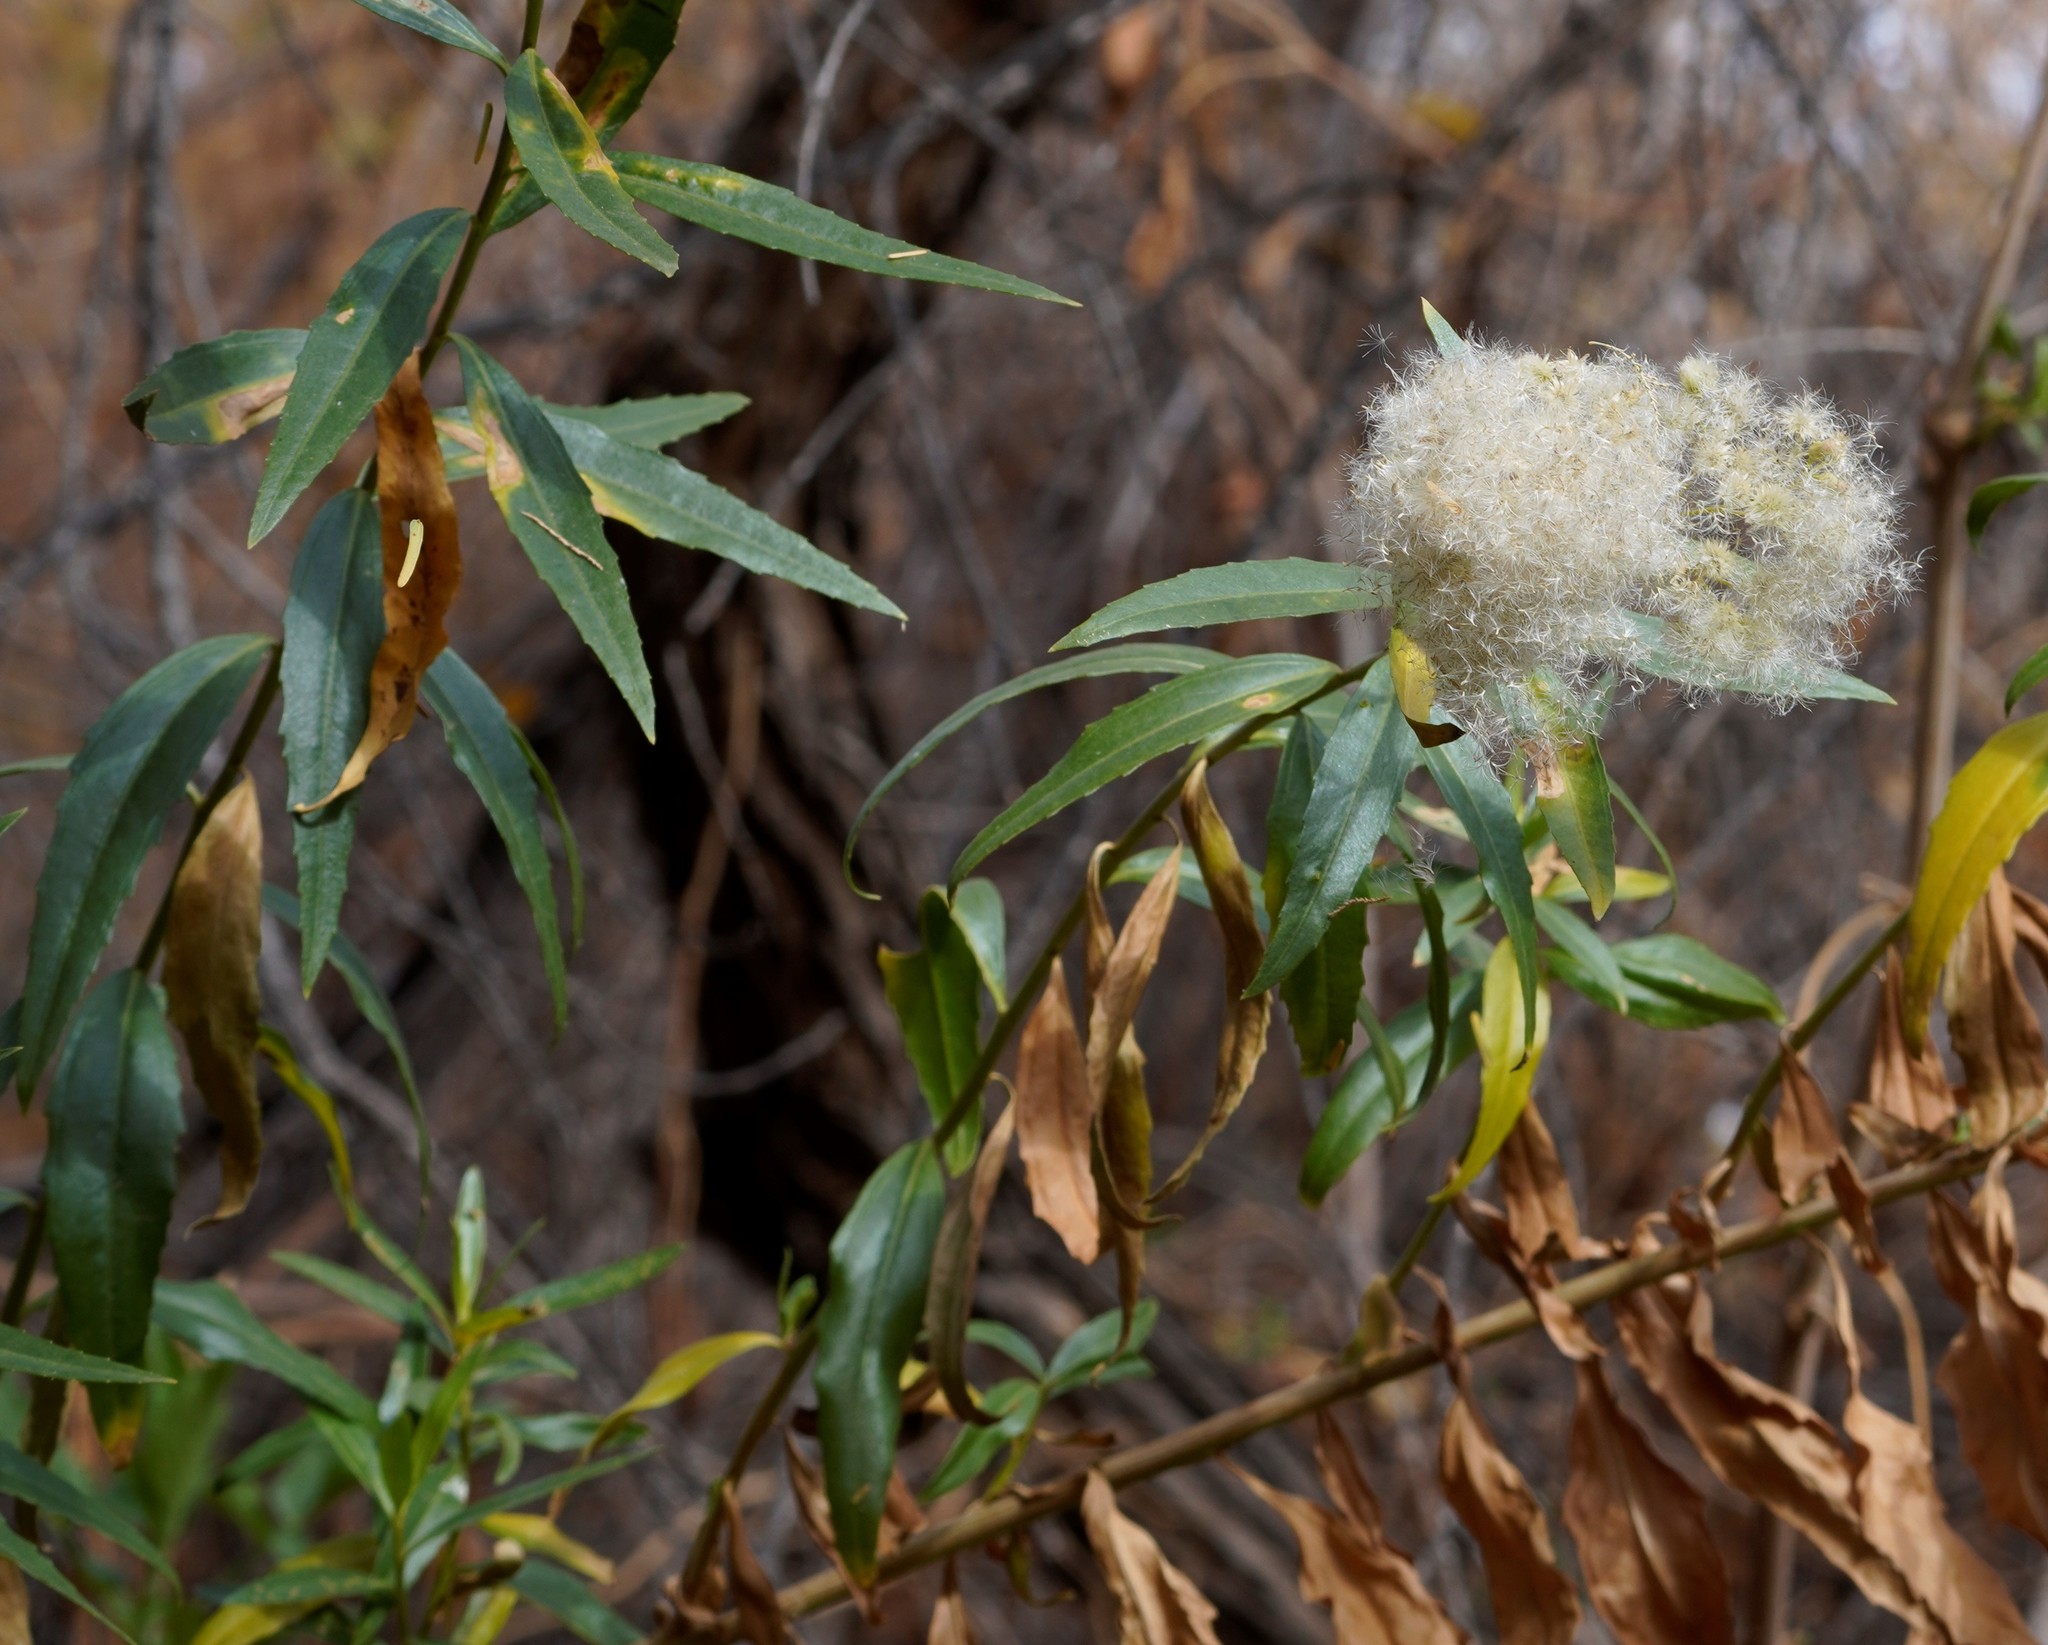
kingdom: Plantae
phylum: Tracheophyta
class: Magnoliopsida
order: Asterales
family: Asteraceae
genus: Baccharis
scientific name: Baccharis salicifolia
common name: Sticky baccharis
